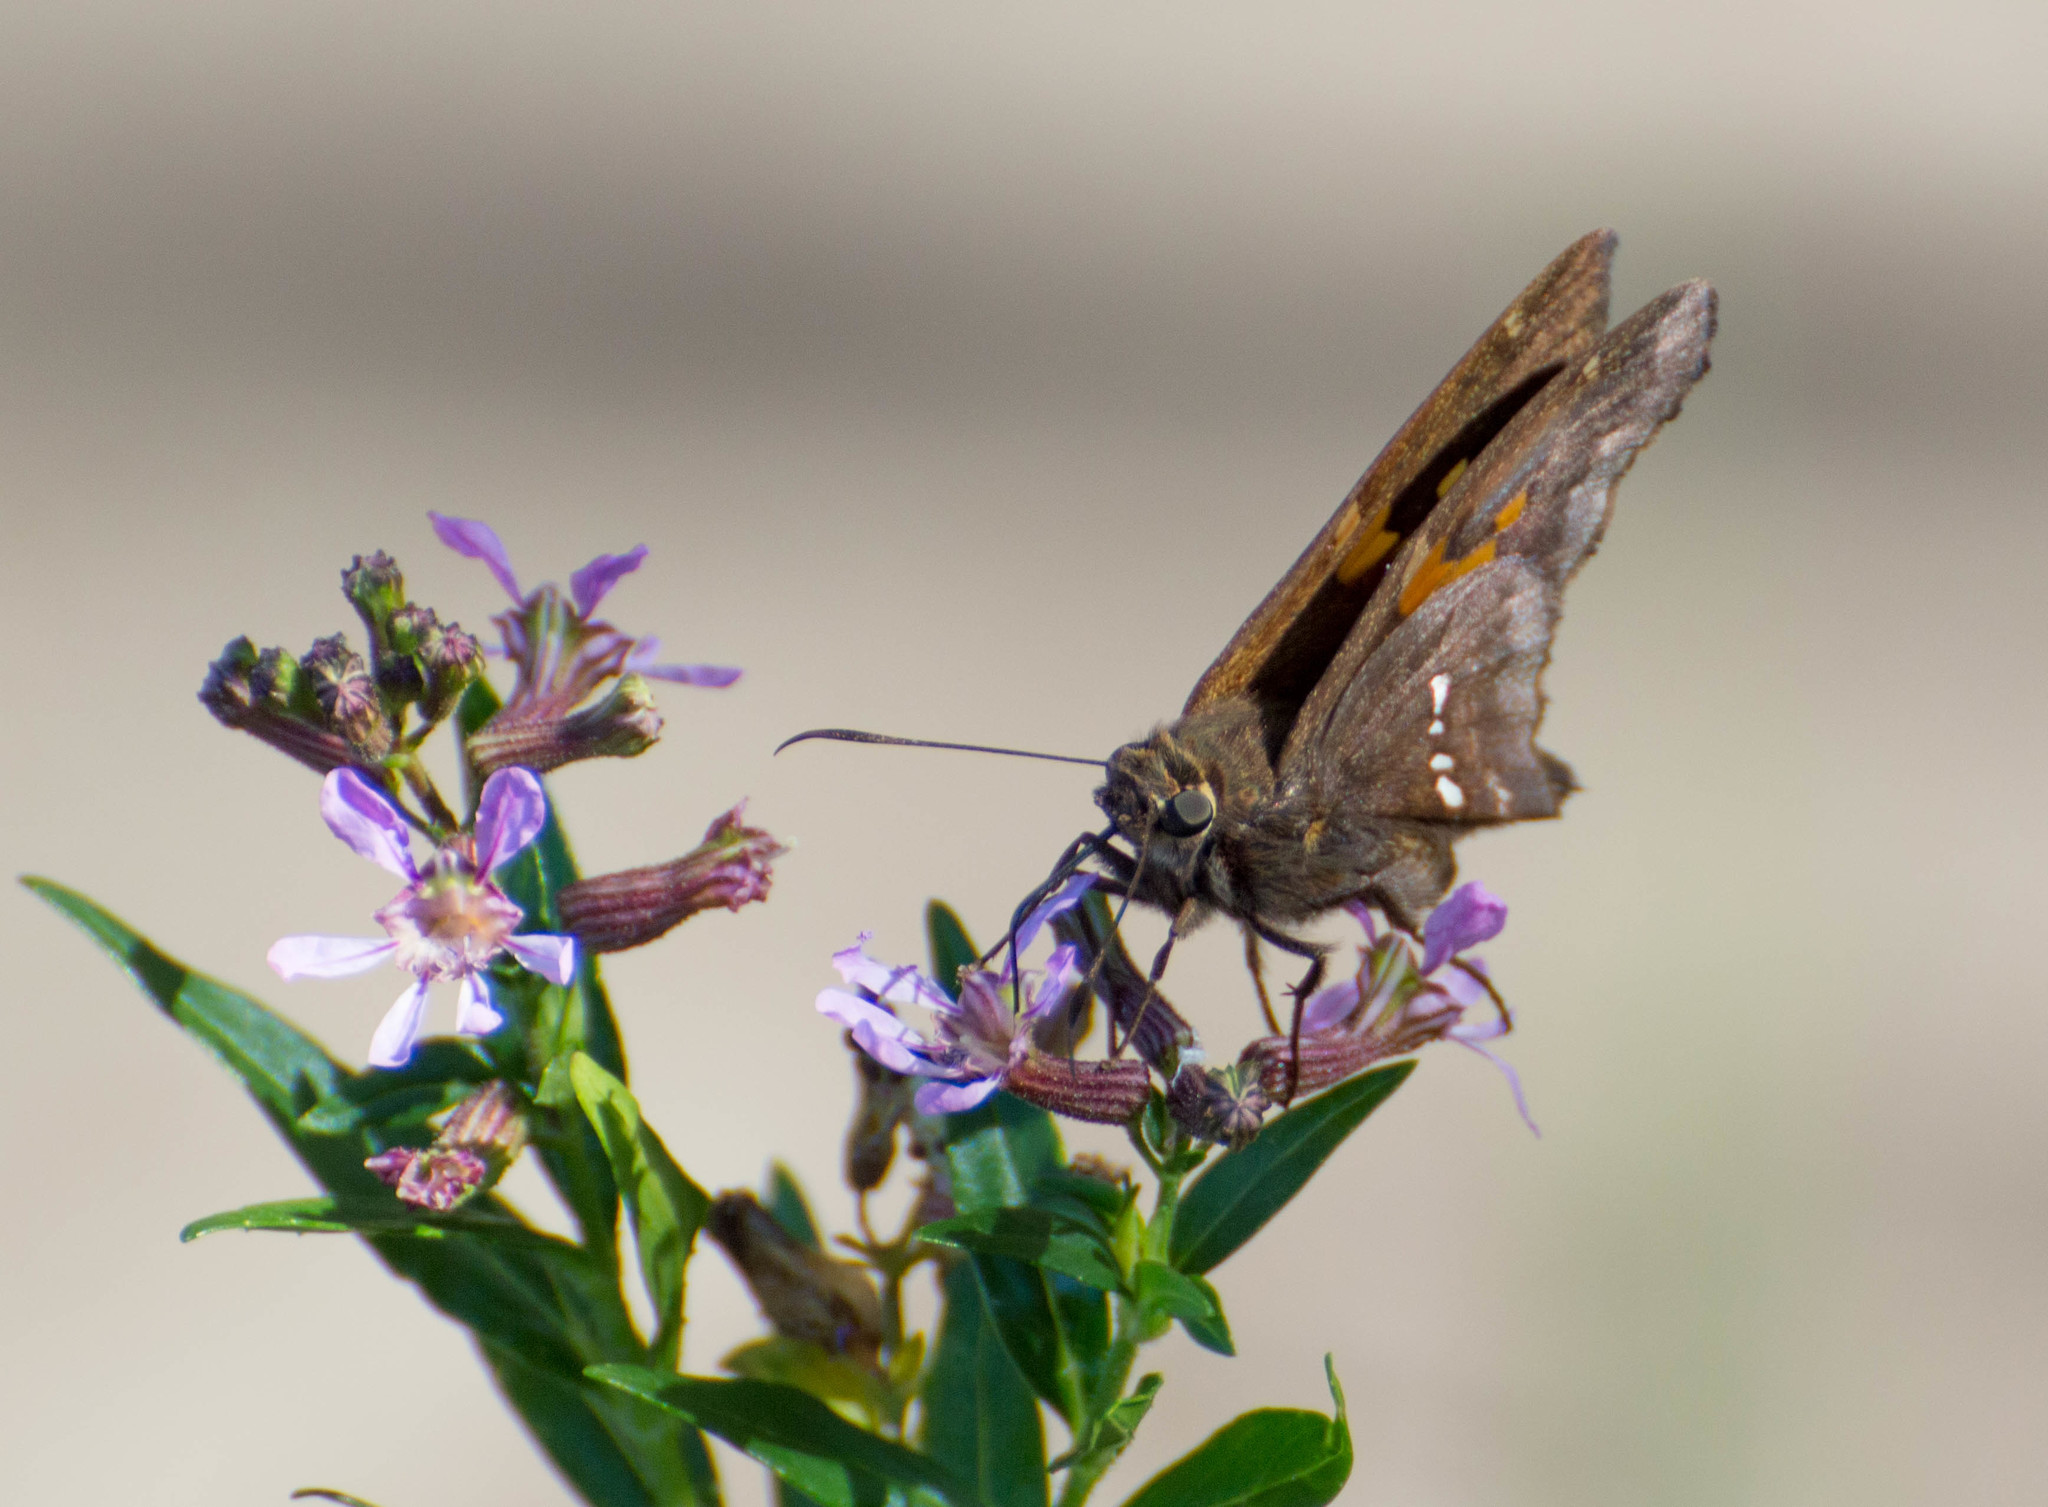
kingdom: Animalia
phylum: Arthropoda
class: Insecta
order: Lepidoptera
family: Hesperiidae
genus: Epargyreus
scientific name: Epargyreus tmolis
